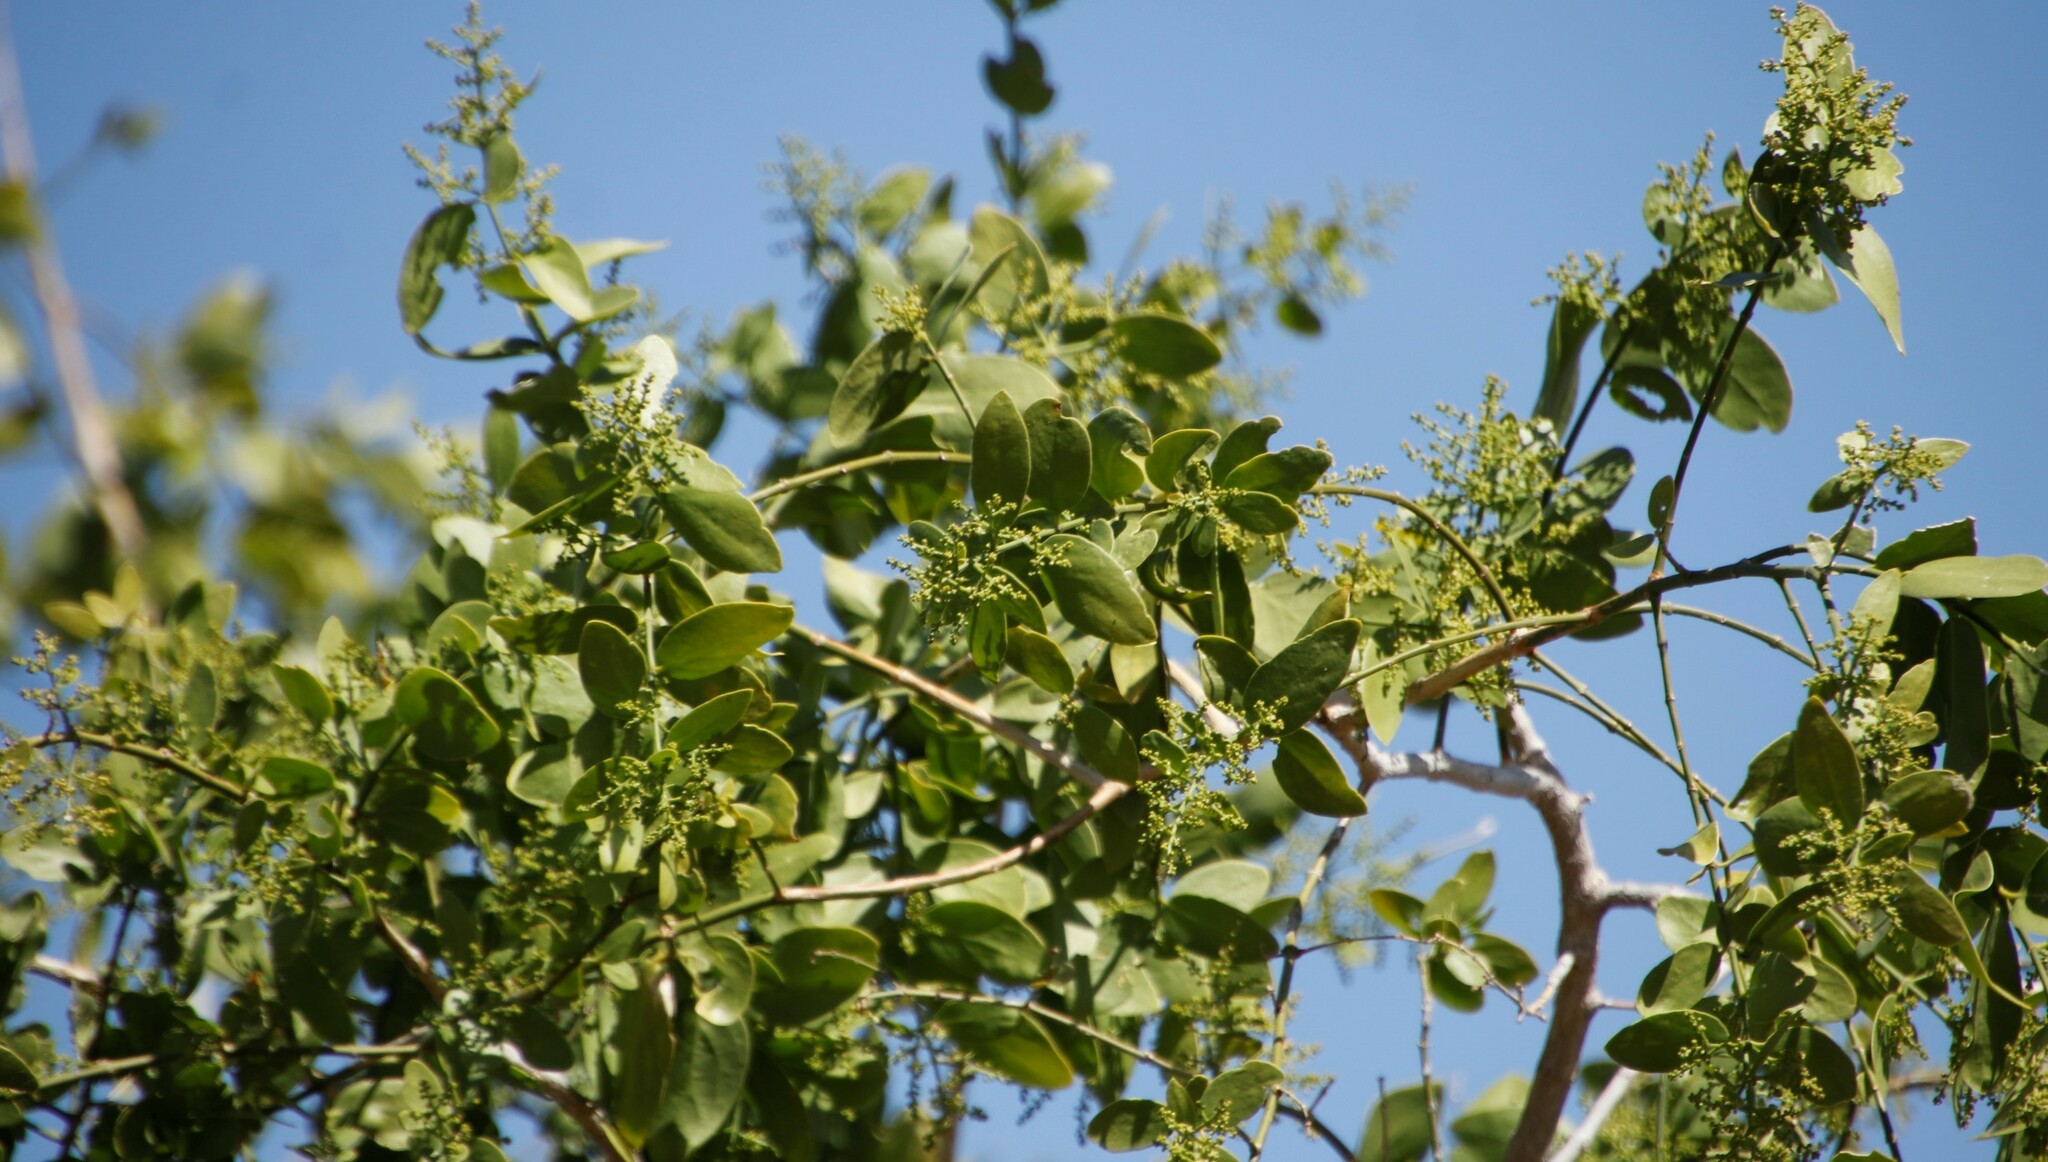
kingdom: Plantae
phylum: Tracheophyta
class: Magnoliopsida
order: Brassicales
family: Salvadoraceae
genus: Salvadora
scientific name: Salvadora persica
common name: Toothbrushtree
